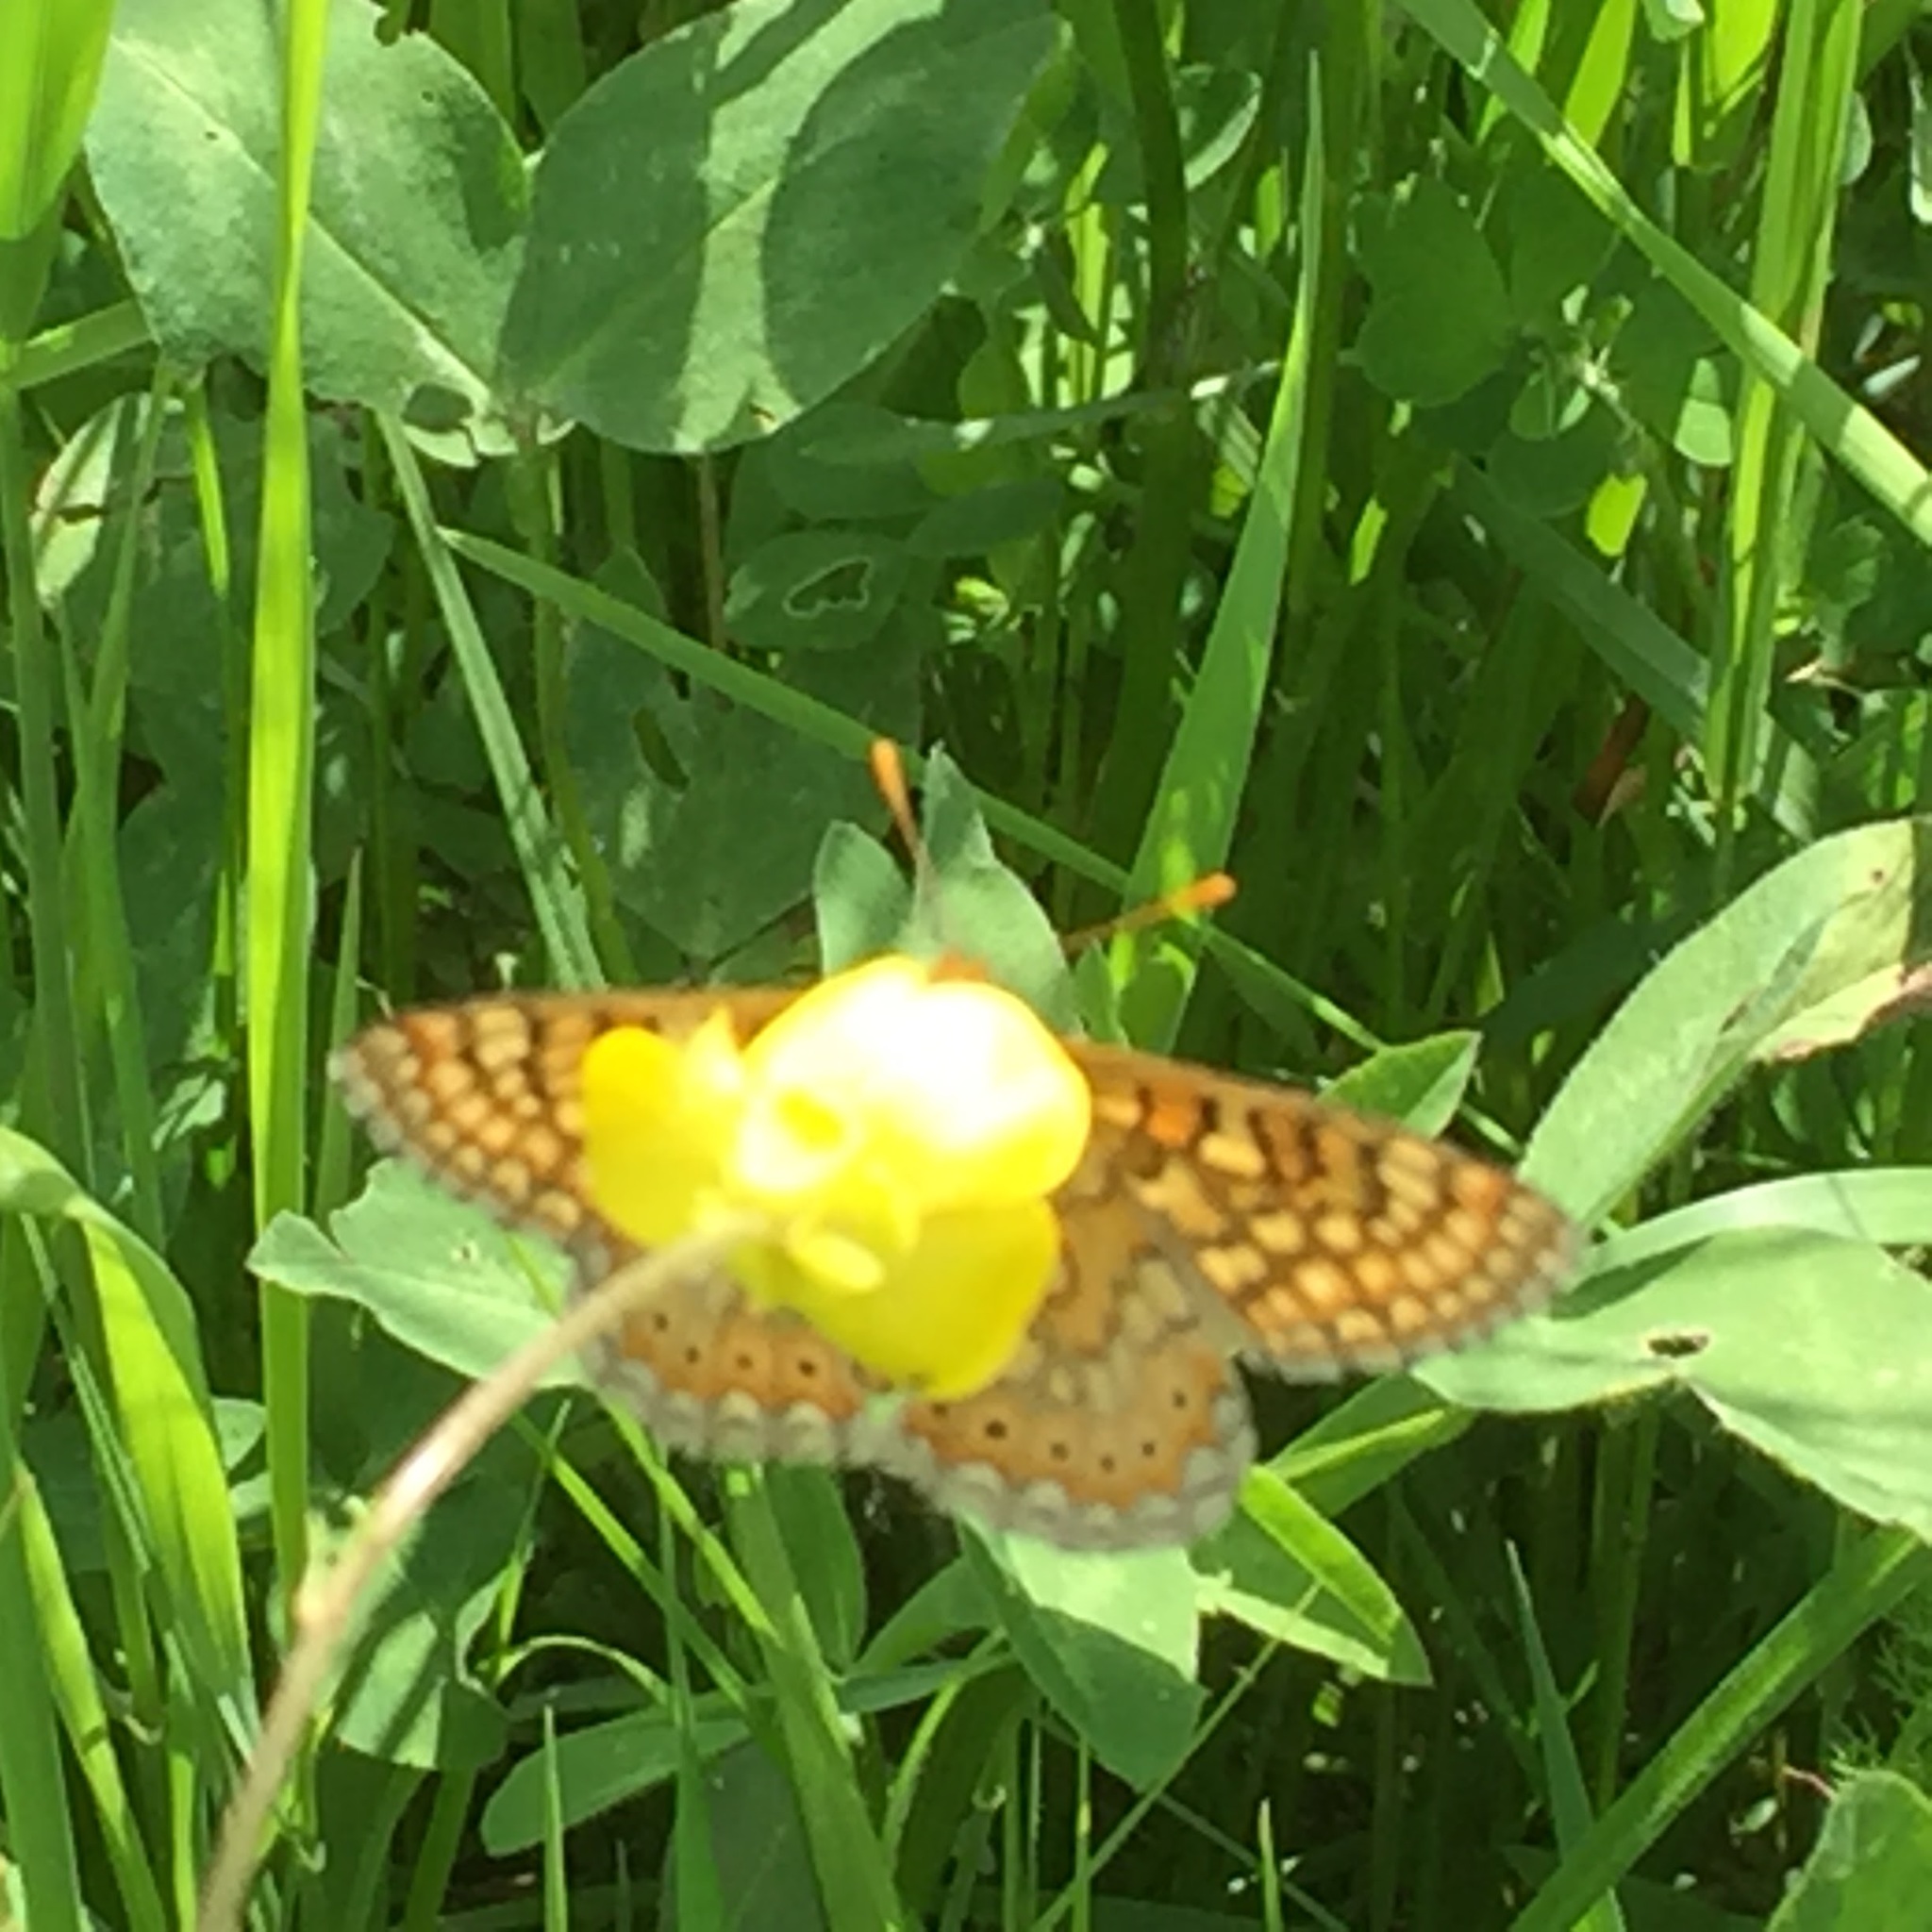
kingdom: Animalia
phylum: Arthropoda
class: Insecta
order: Lepidoptera
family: Nymphalidae
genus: Euphydryas
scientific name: Euphydryas aurinia
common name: Marsh fritillary
